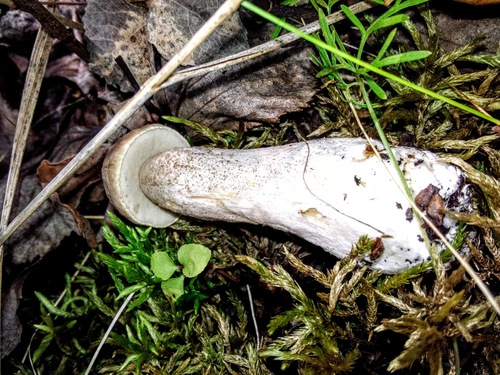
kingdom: Fungi
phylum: Basidiomycota
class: Agaricomycetes
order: Boletales
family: Boletaceae
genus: Leccinum
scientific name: Leccinum
